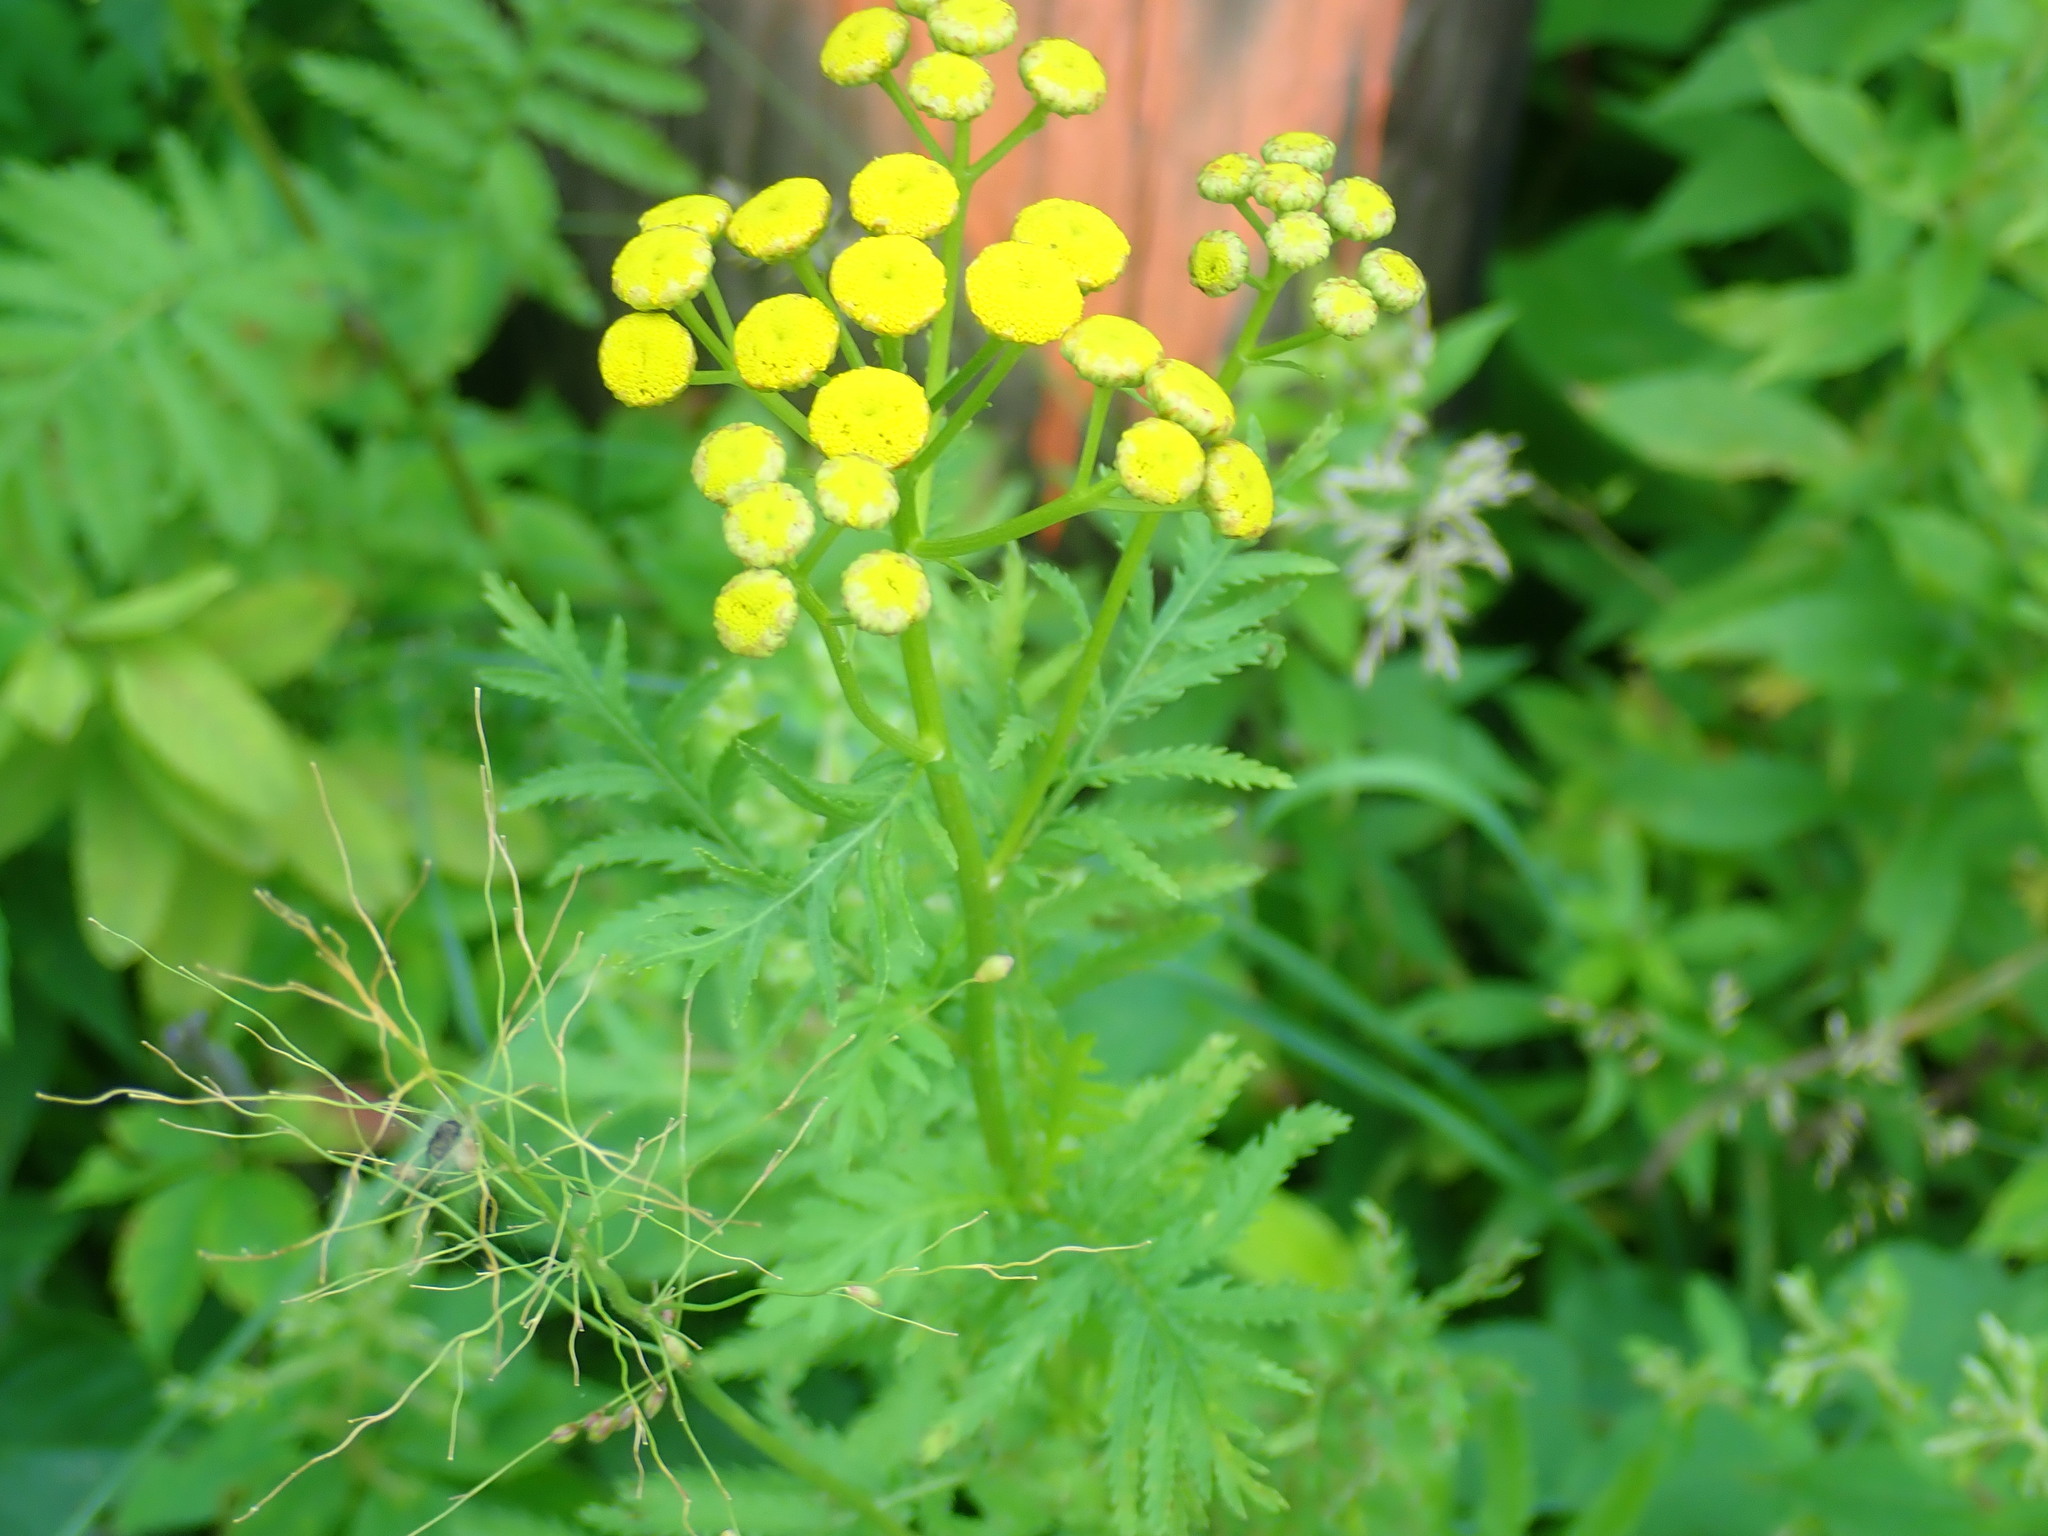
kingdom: Plantae
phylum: Tracheophyta
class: Magnoliopsida
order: Asterales
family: Asteraceae
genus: Tanacetum
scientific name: Tanacetum vulgare
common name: Common tansy
